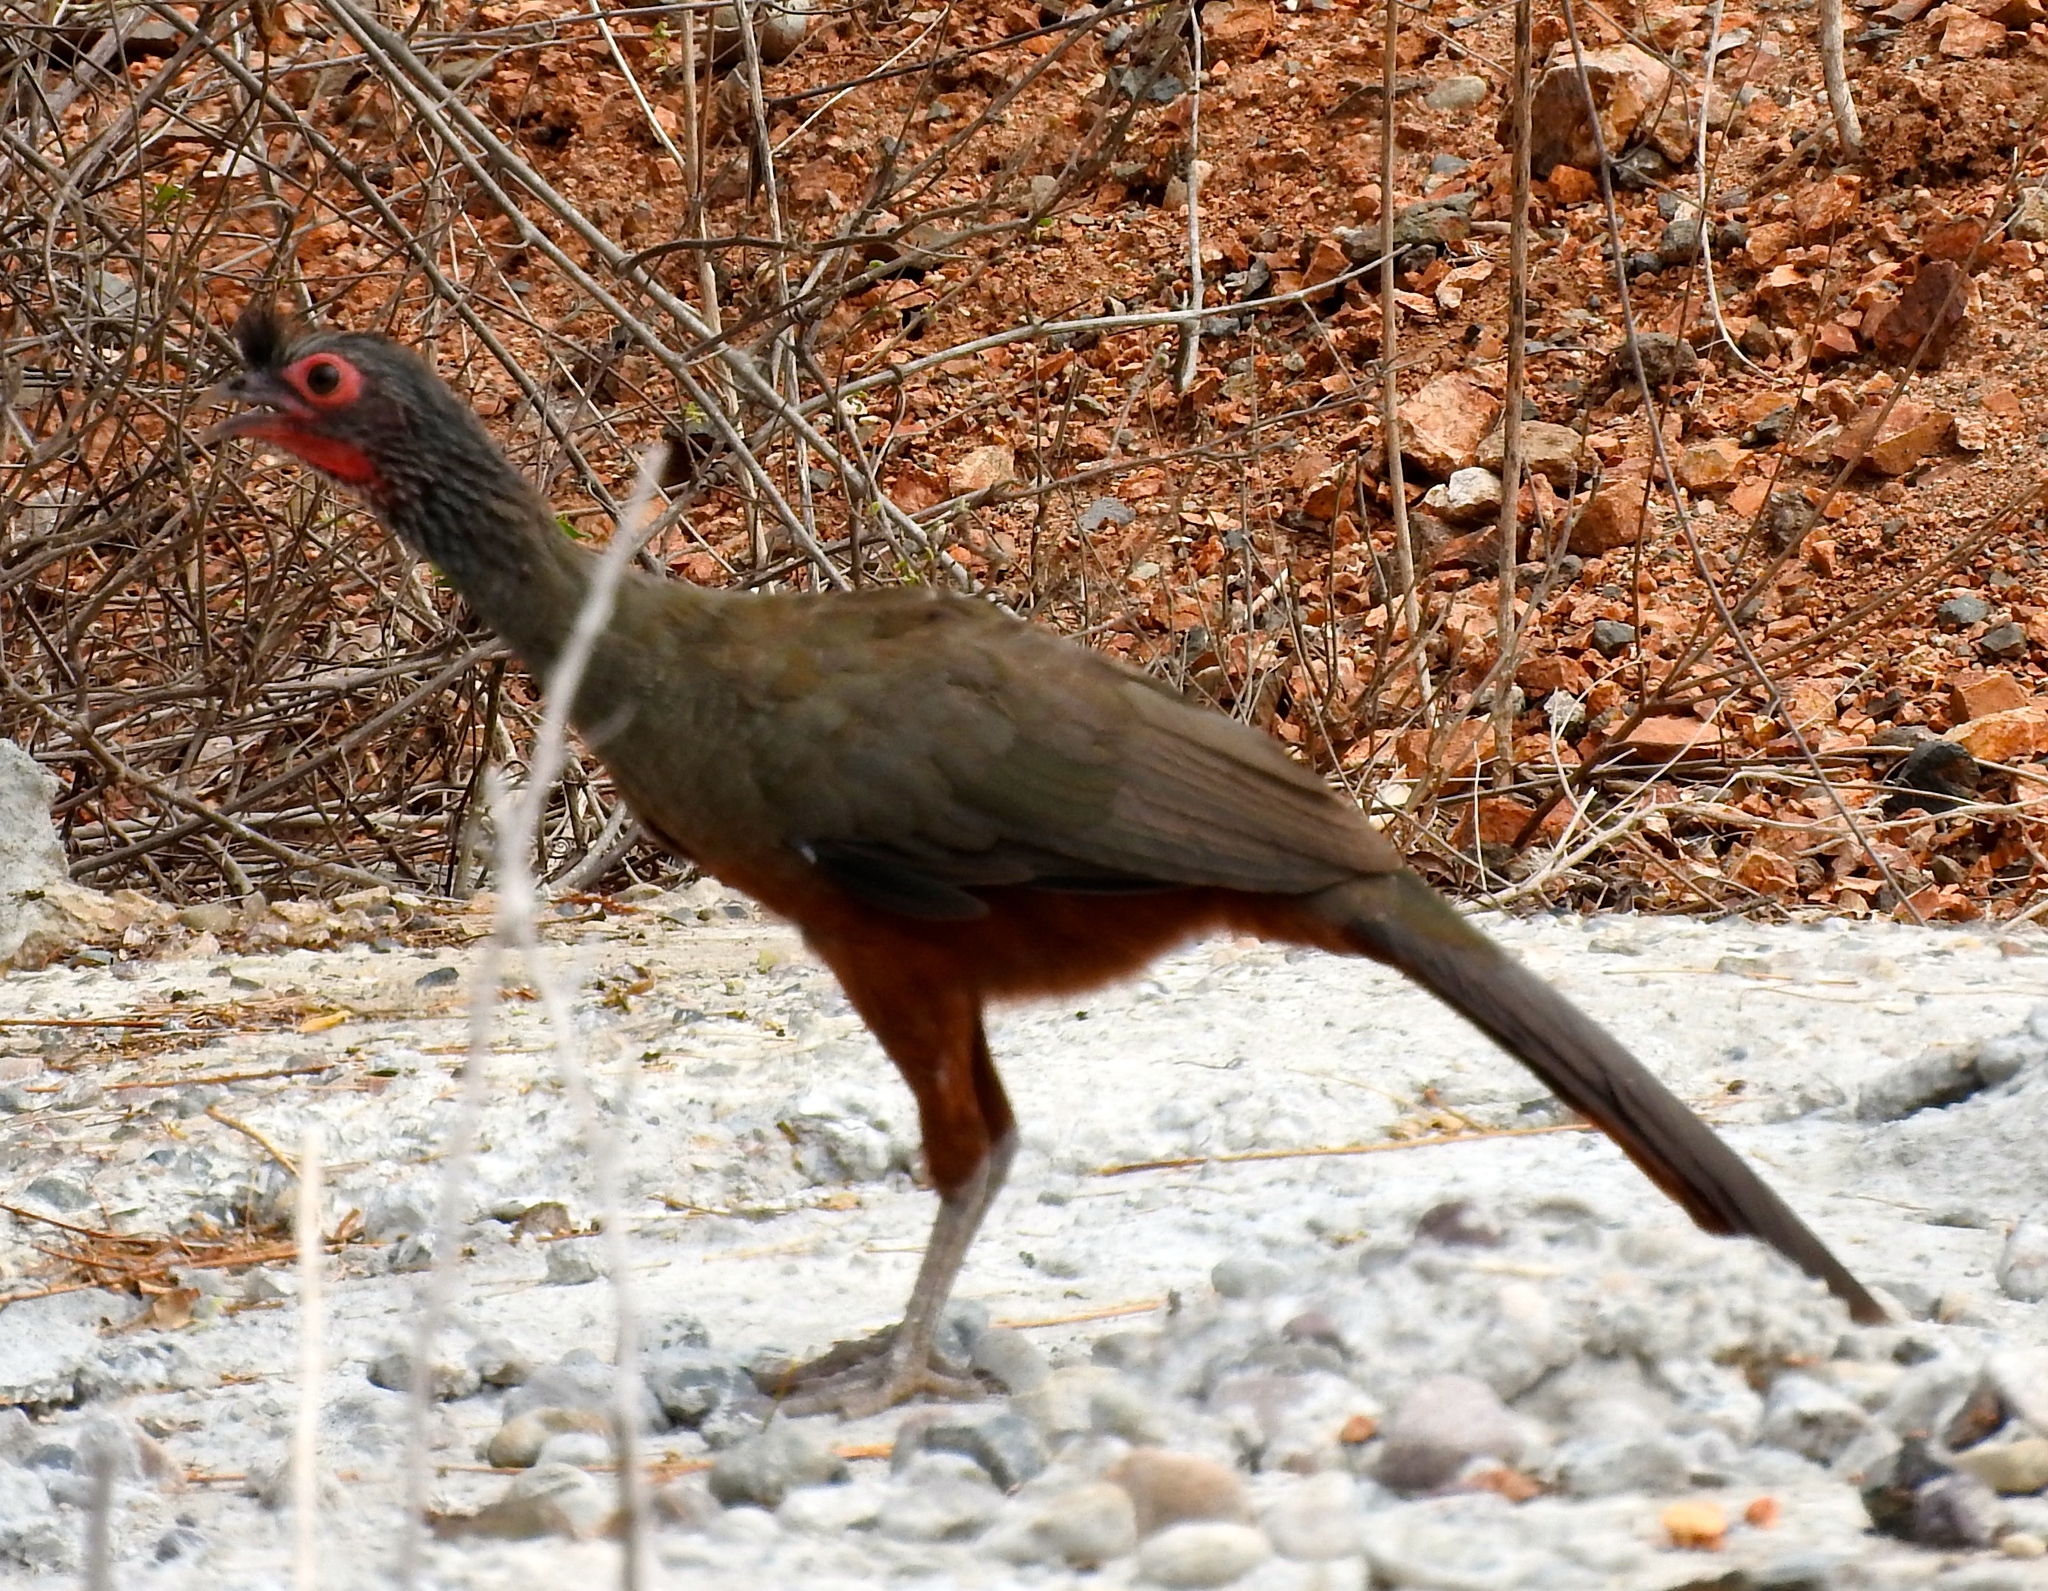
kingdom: Animalia
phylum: Chordata
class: Aves
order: Galliformes
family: Cracidae
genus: Ortalis
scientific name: Ortalis wagleri
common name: Rufous-bellied chachalaca
